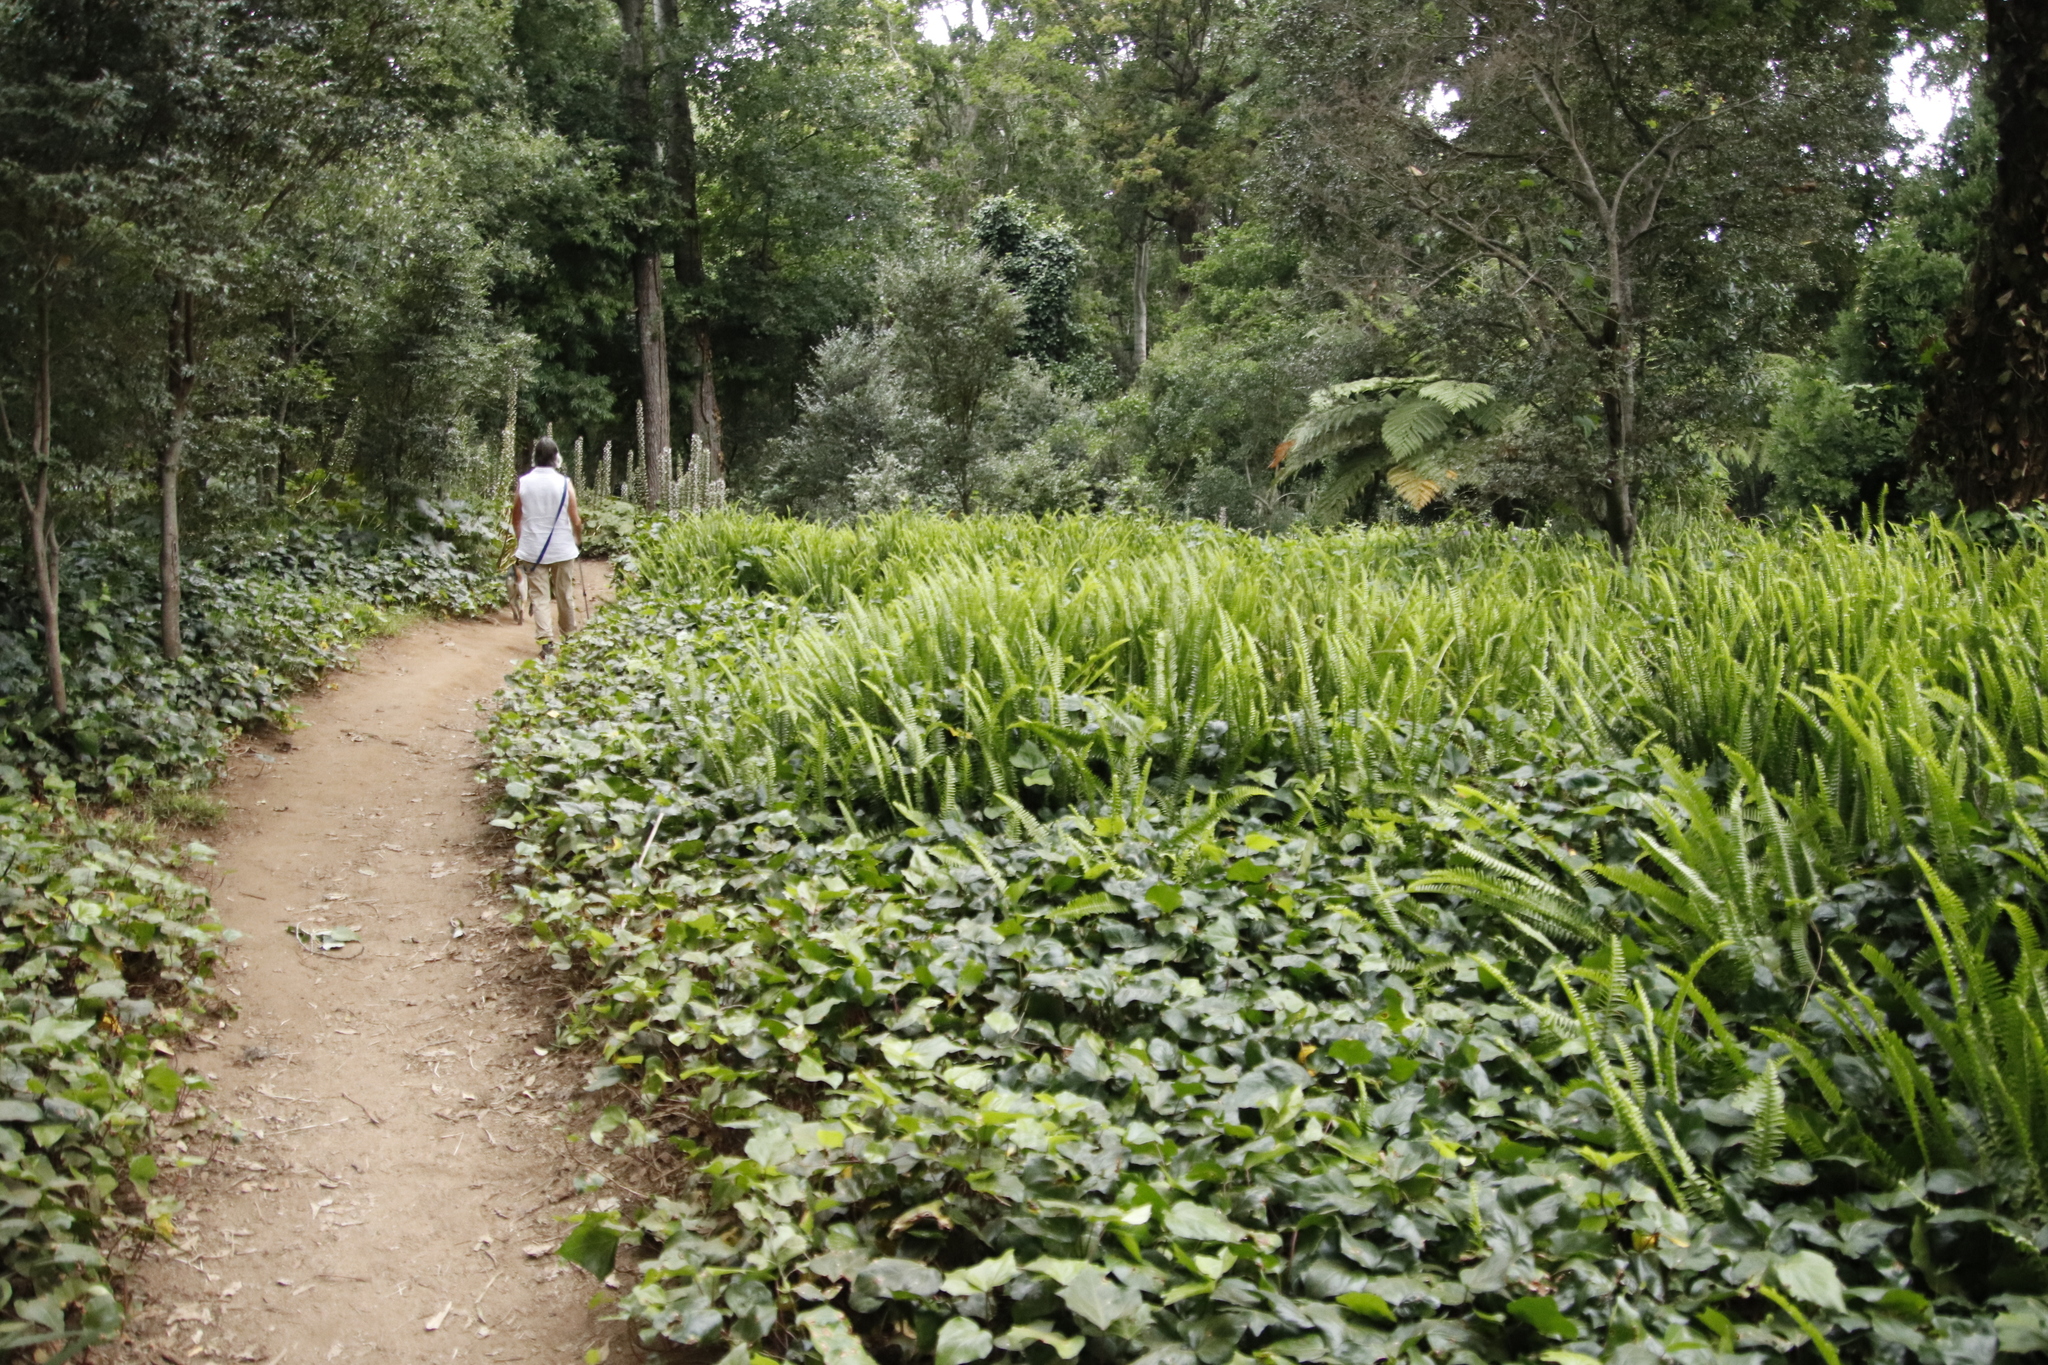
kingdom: Plantae
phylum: Tracheophyta
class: Polypodiopsida
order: Polypodiales
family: Nephrolepidaceae
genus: Nephrolepis
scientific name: Nephrolepis cordifolia
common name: Narrow swordfern
